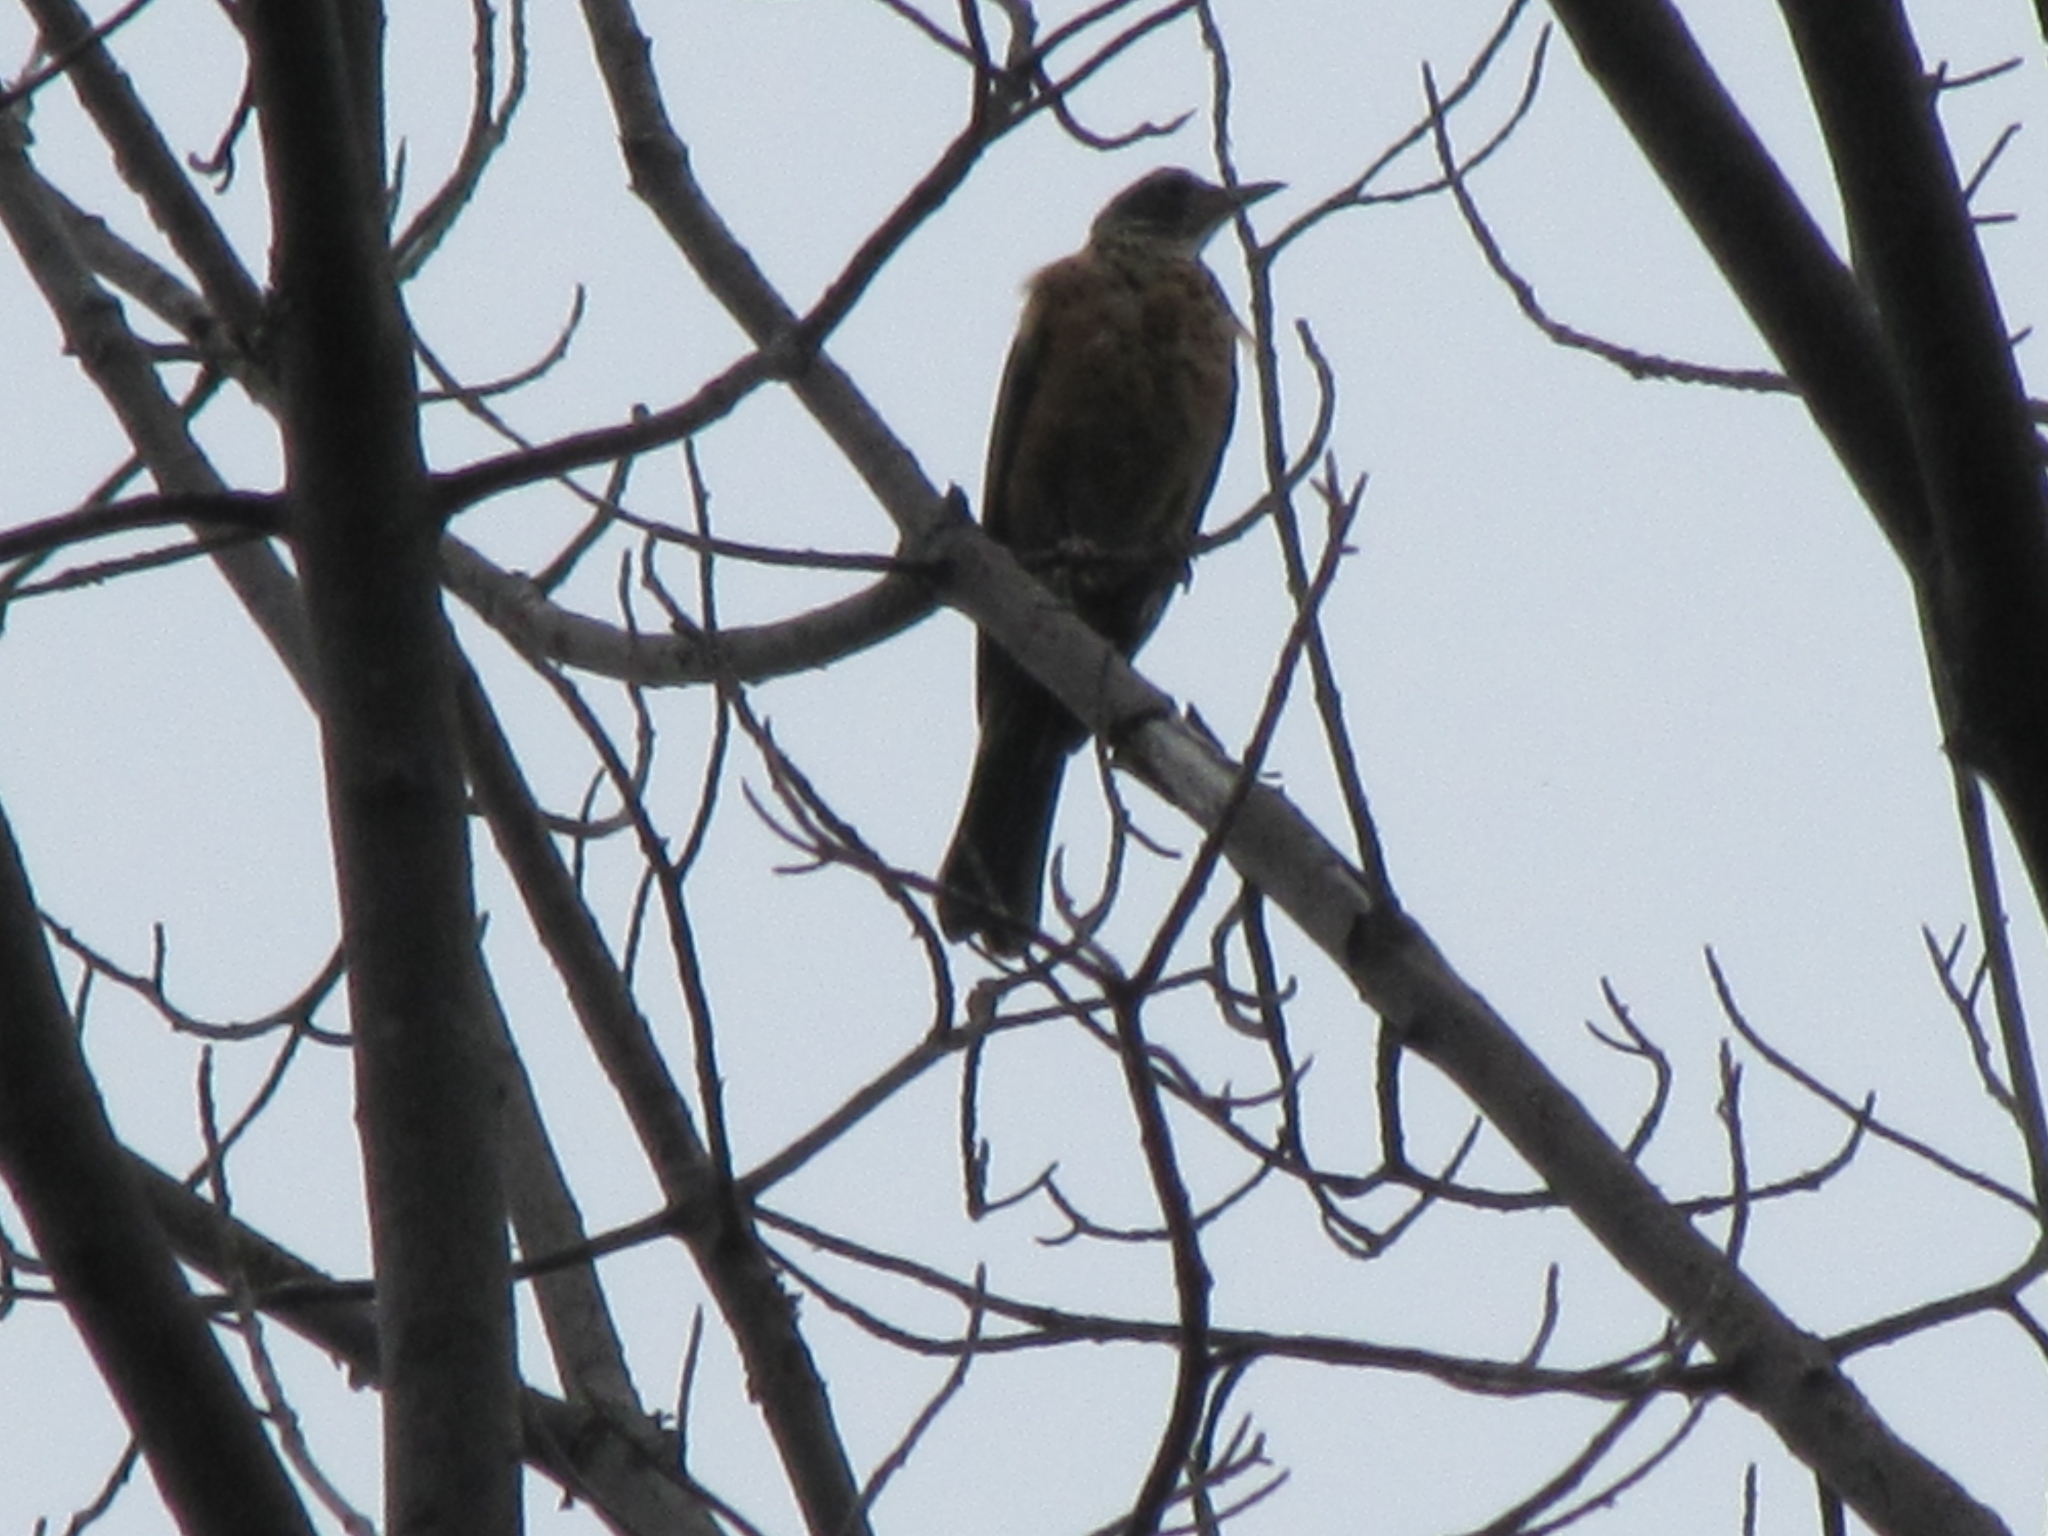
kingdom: Animalia
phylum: Chordata
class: Aves
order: Passeriformes
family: Turdidae
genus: Turdus
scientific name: Turdus migratorius
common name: American robin
